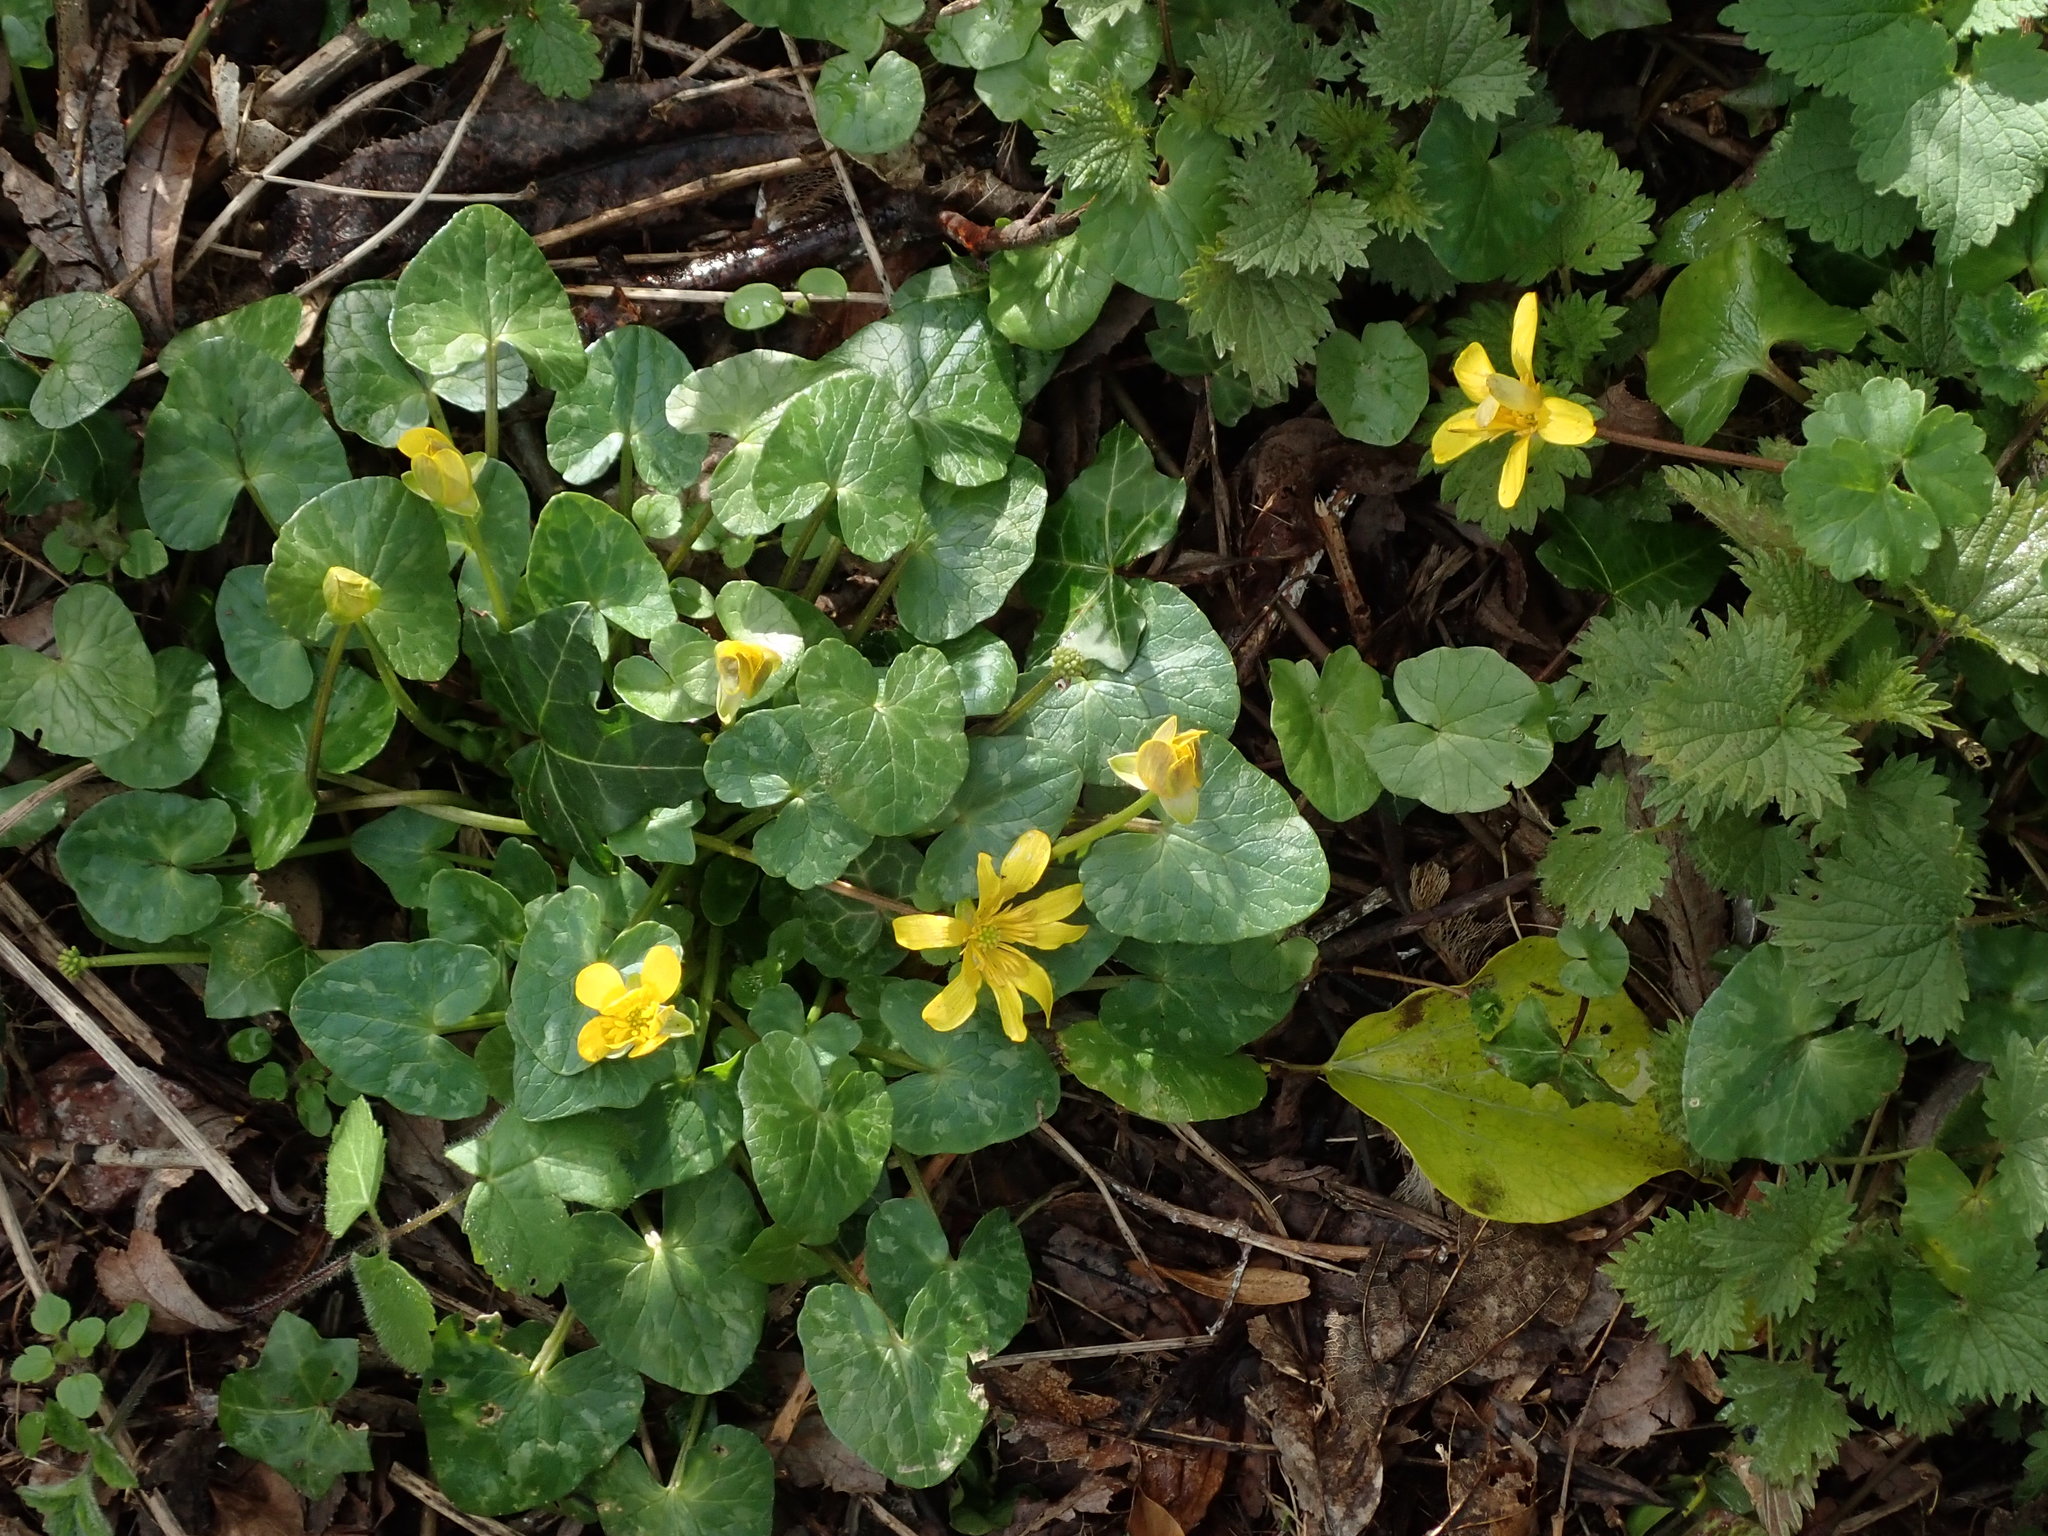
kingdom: Plantae
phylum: Tracheophyta
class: Magnoliopsida
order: Ranunculales
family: Ranunculaceae
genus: Ficaria
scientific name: Ficaria verna
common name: Lesser celandine
